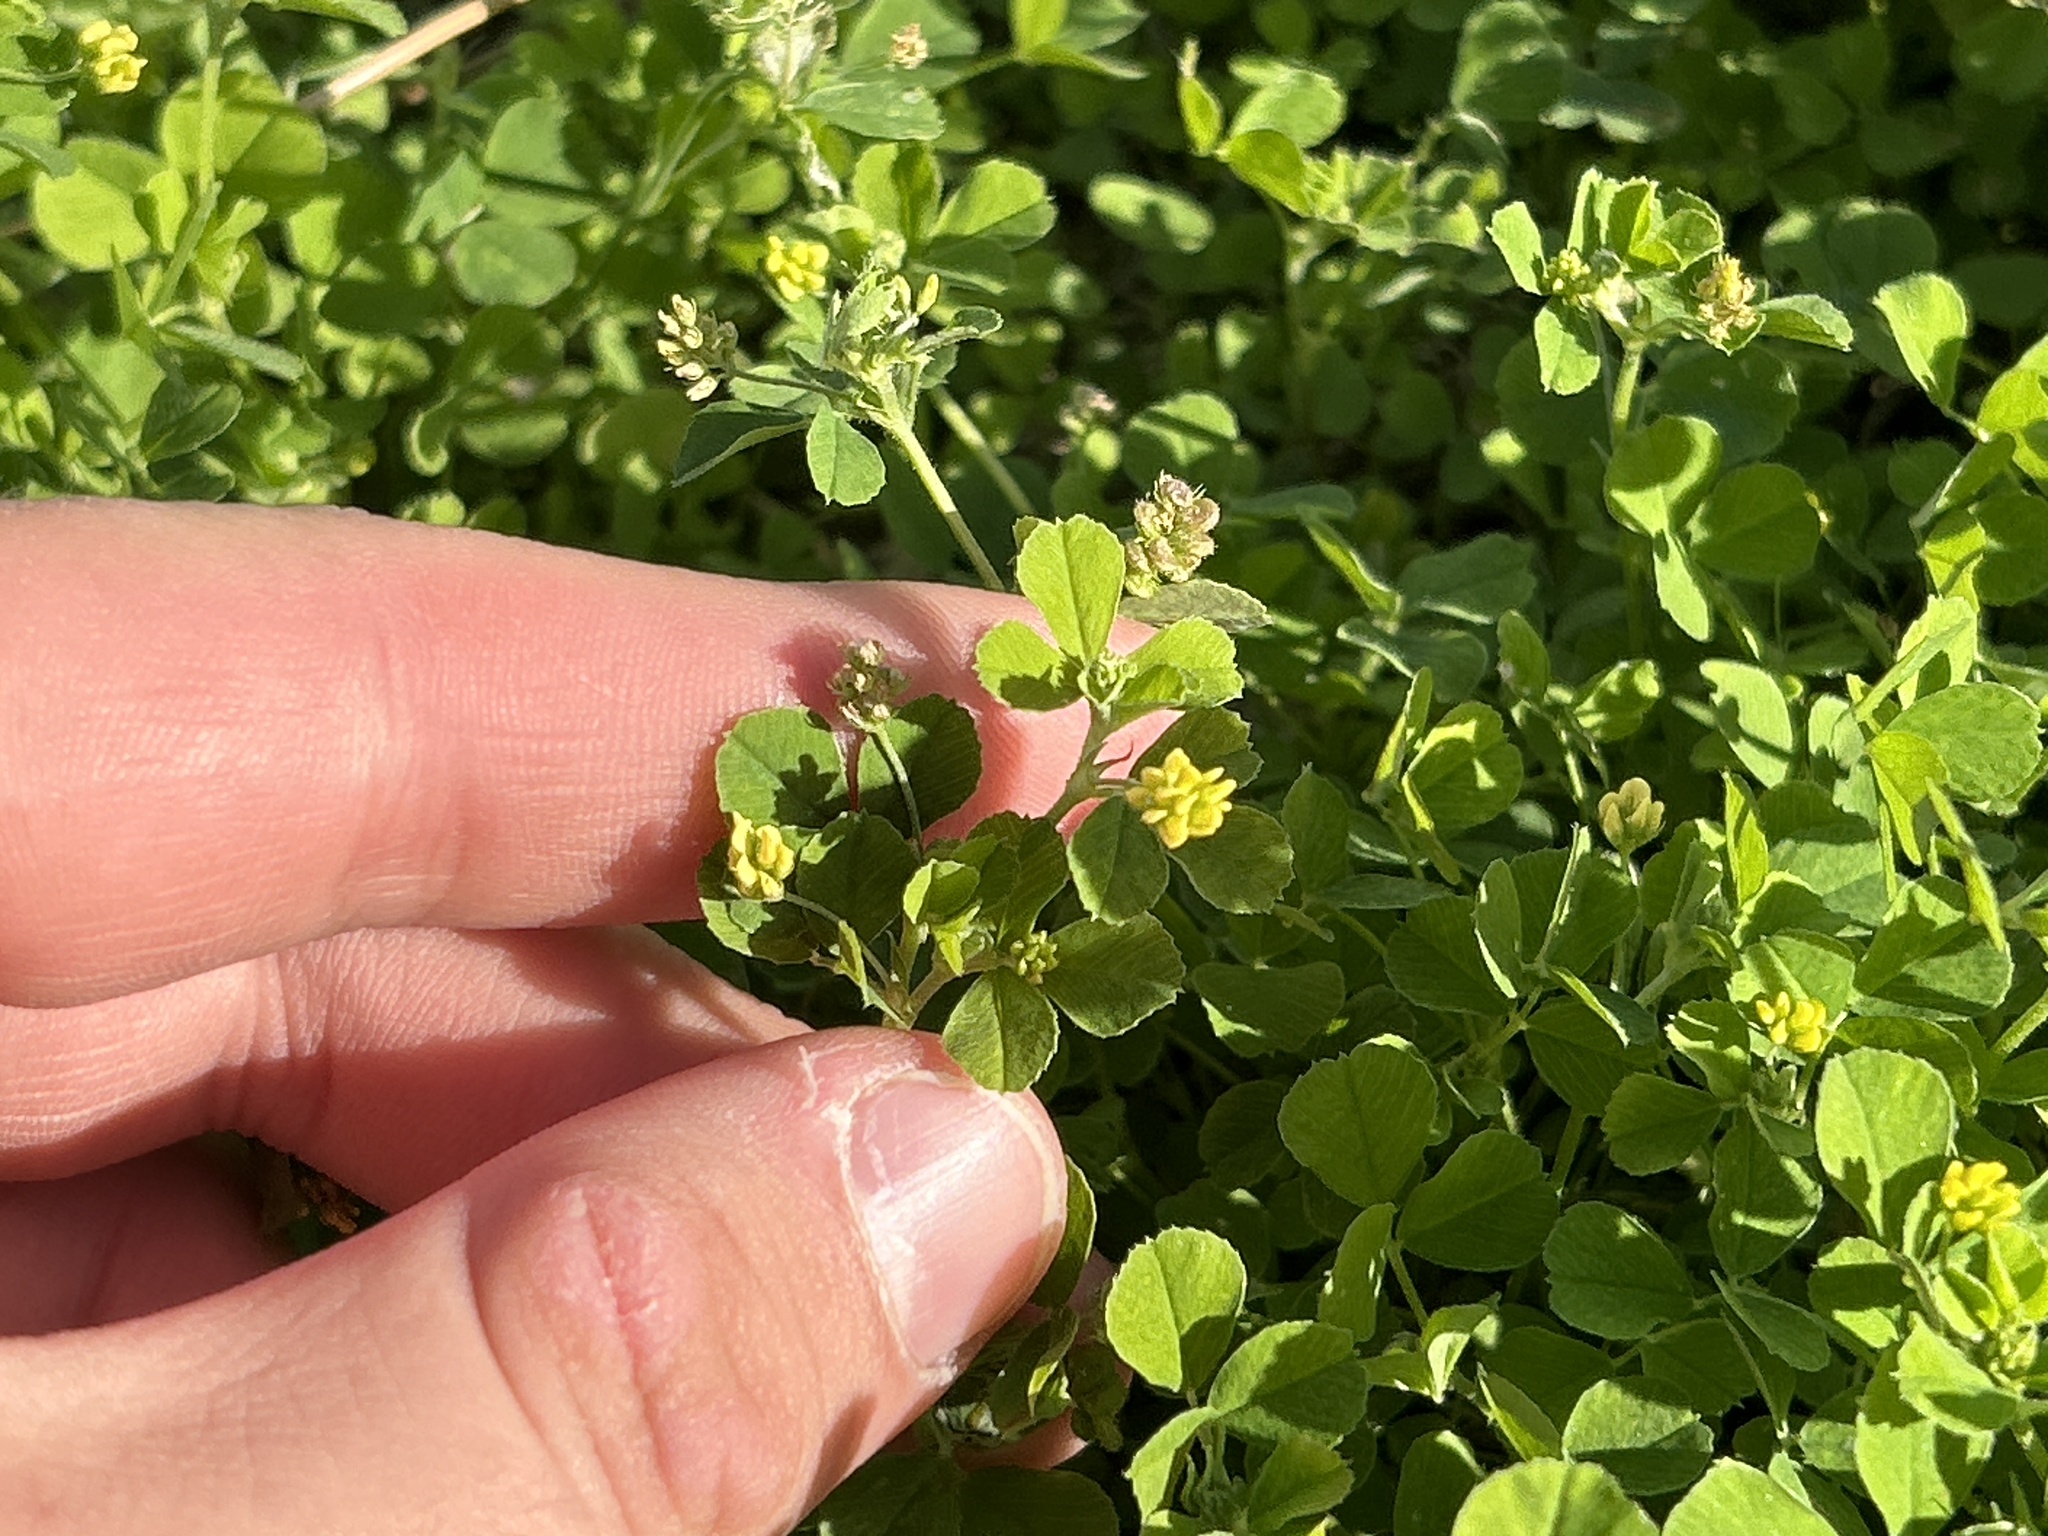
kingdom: Plantae
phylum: Tracheophyta
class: Magnoliopsida
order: Fabales
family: Fabaceae
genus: Medicago
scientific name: Medicago lupulina
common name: Black medick
